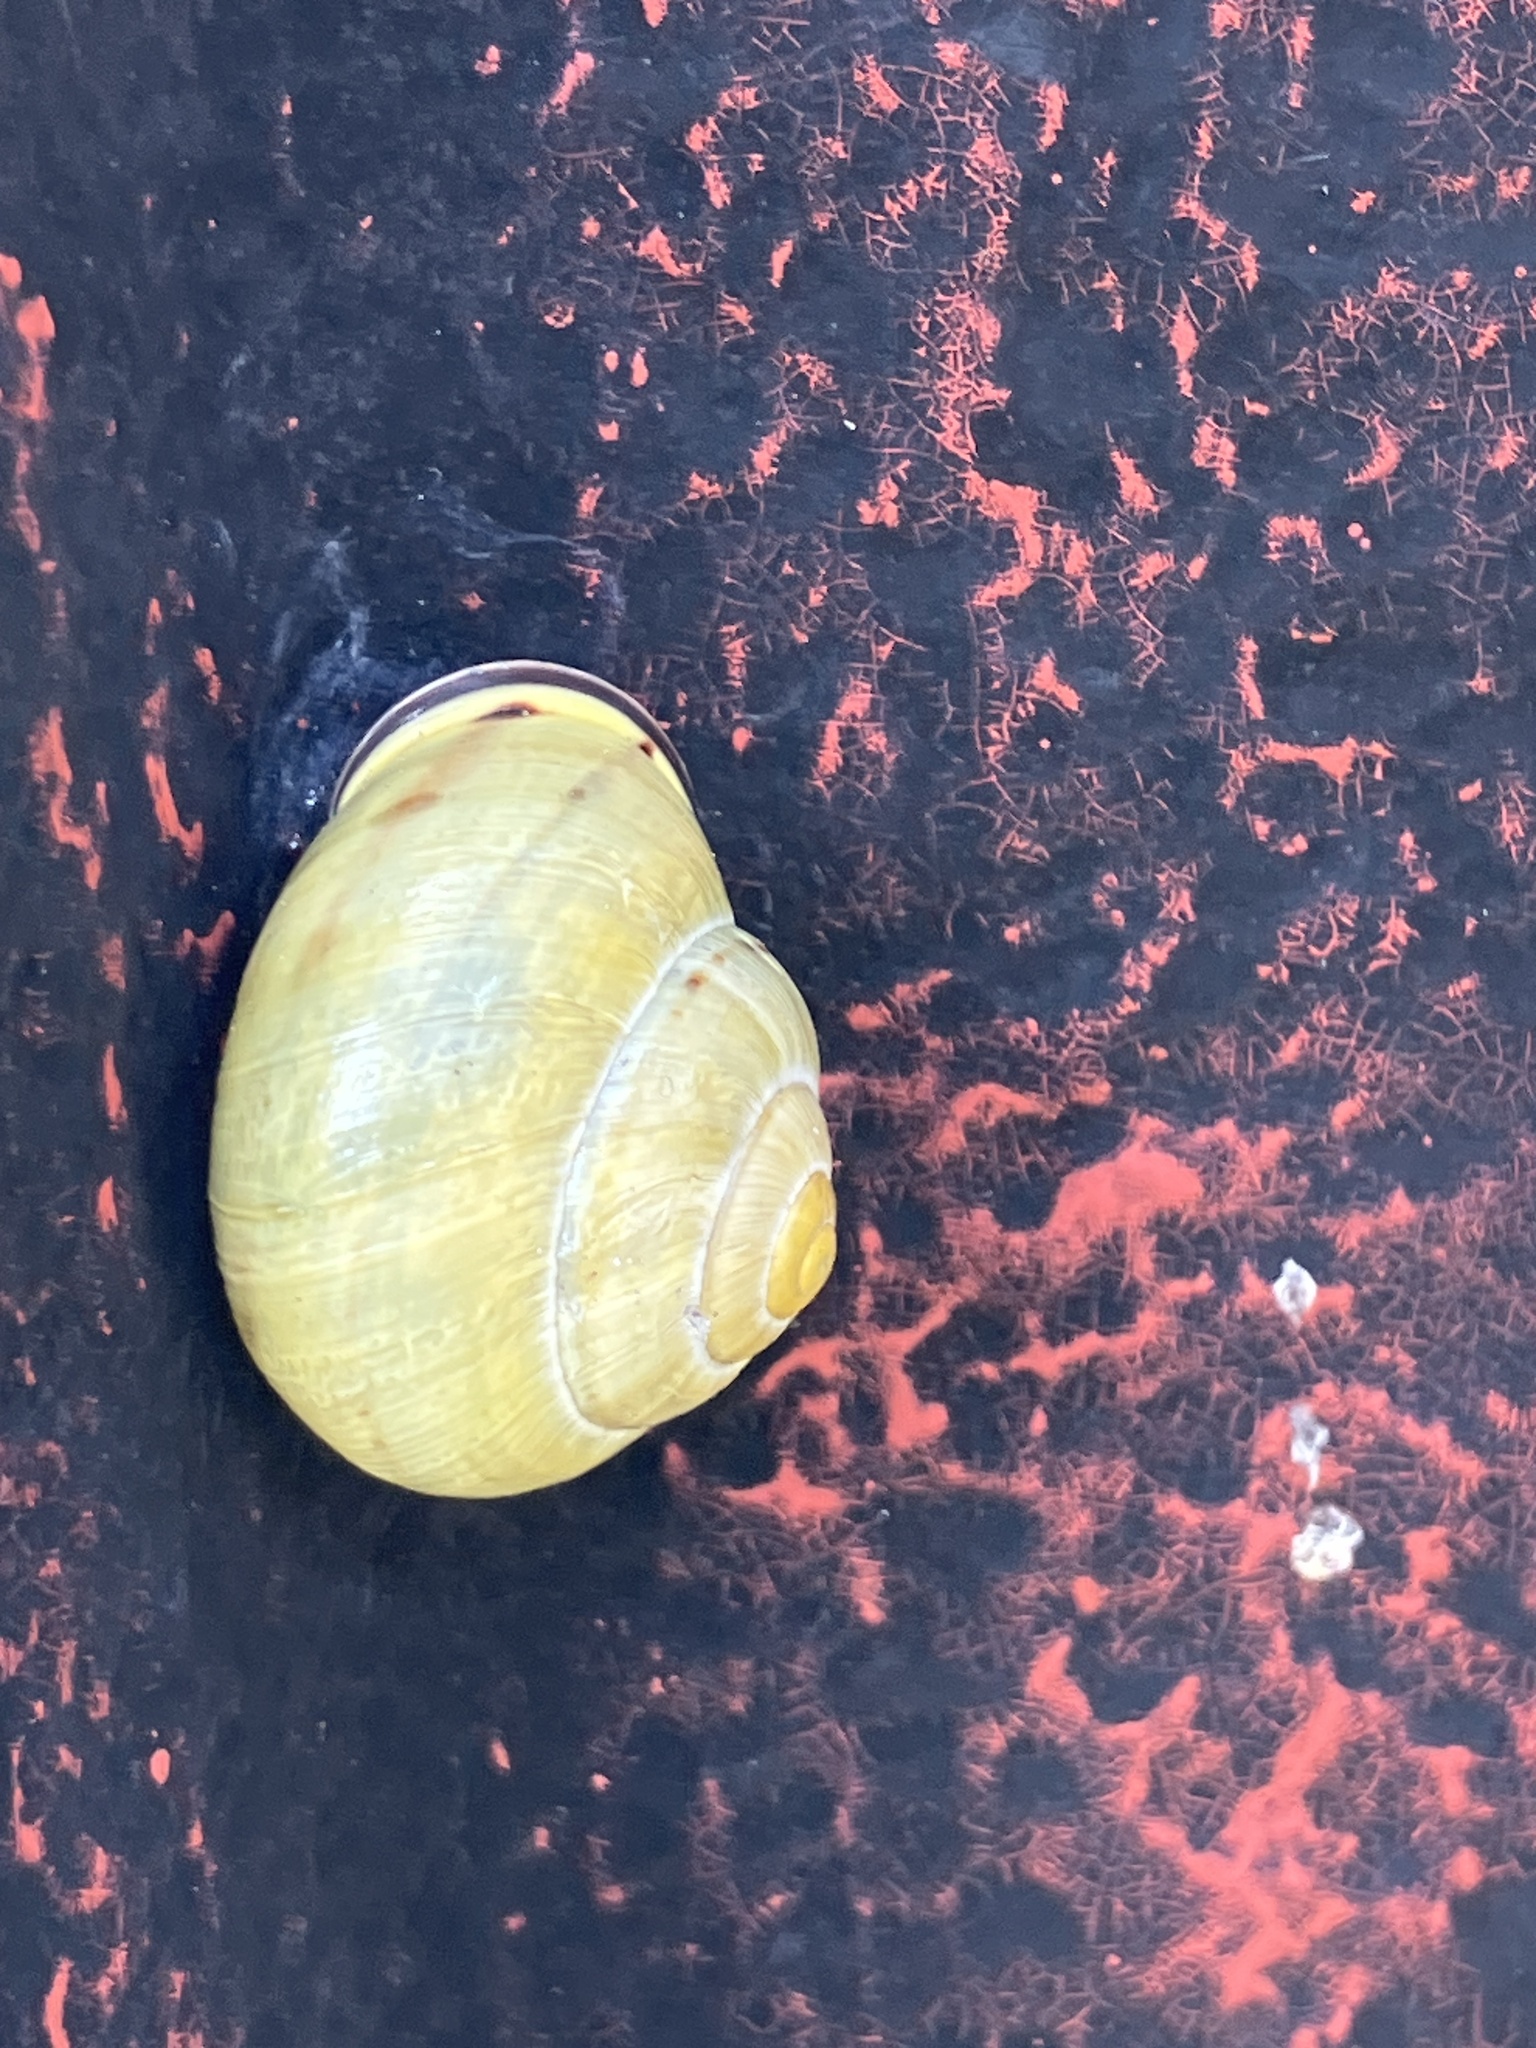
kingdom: Animalia
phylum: Mollusca
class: Gastropoda
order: Stylommatophora
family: Helicidae
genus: Cepaea
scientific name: Cepaea nemoralis
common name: Grovesnail
